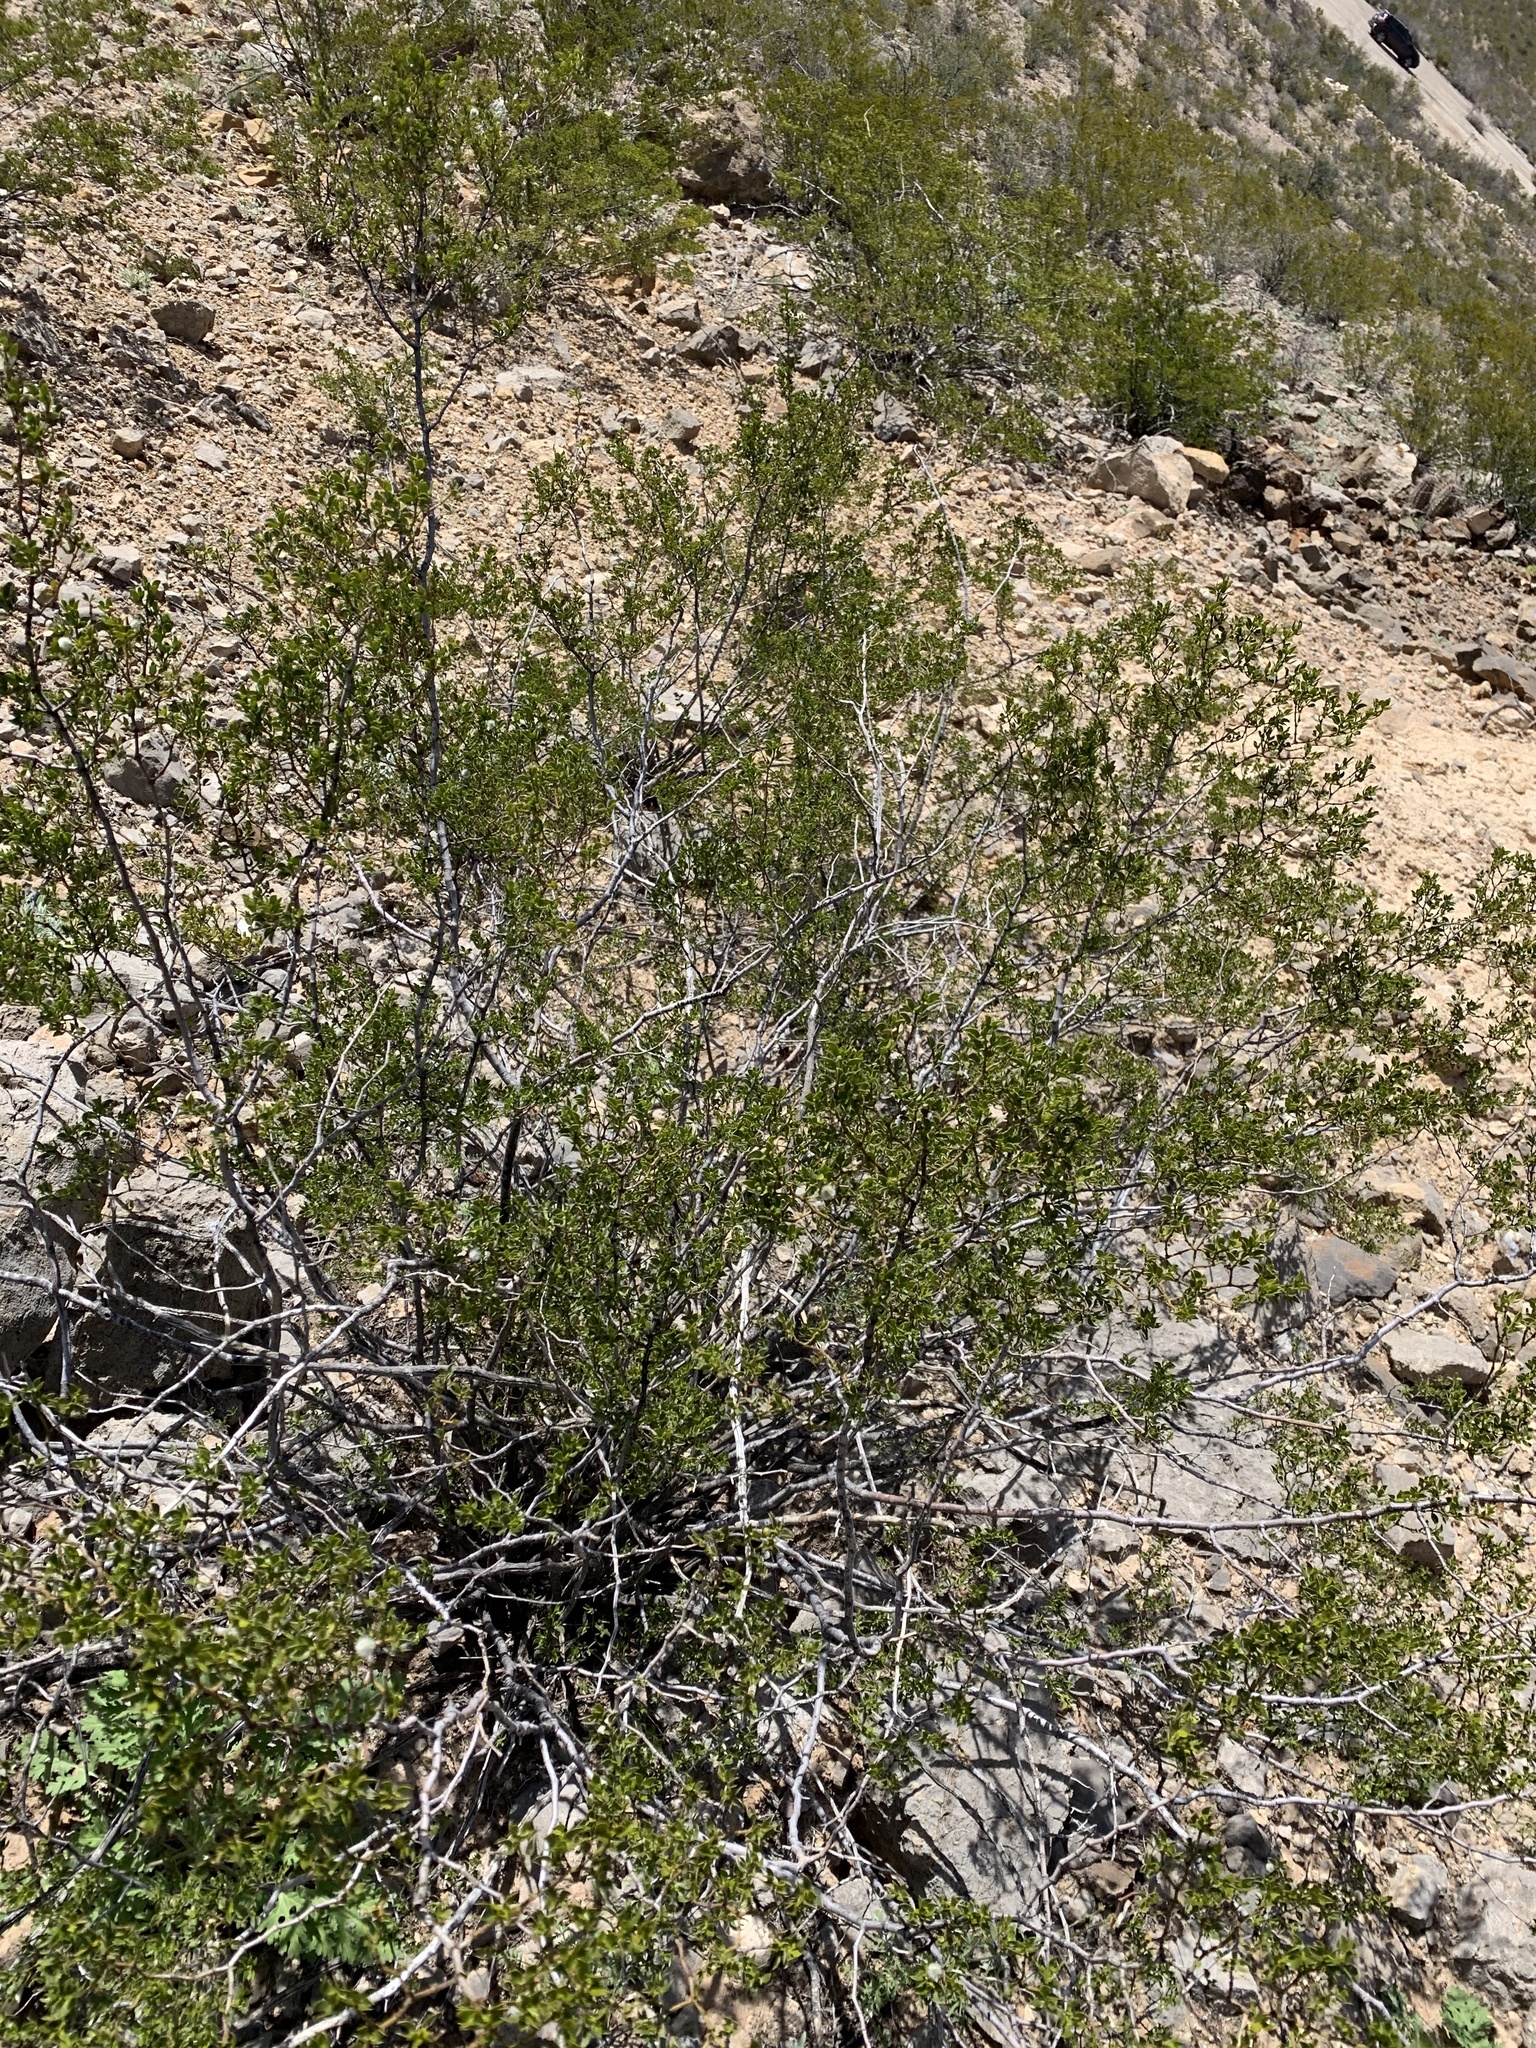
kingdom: Plantae
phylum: Tracheophyta
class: Magnoliopsida
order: Zygophyllales
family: Zygophyllaceae
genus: Larrea
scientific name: Larrea tridentata
